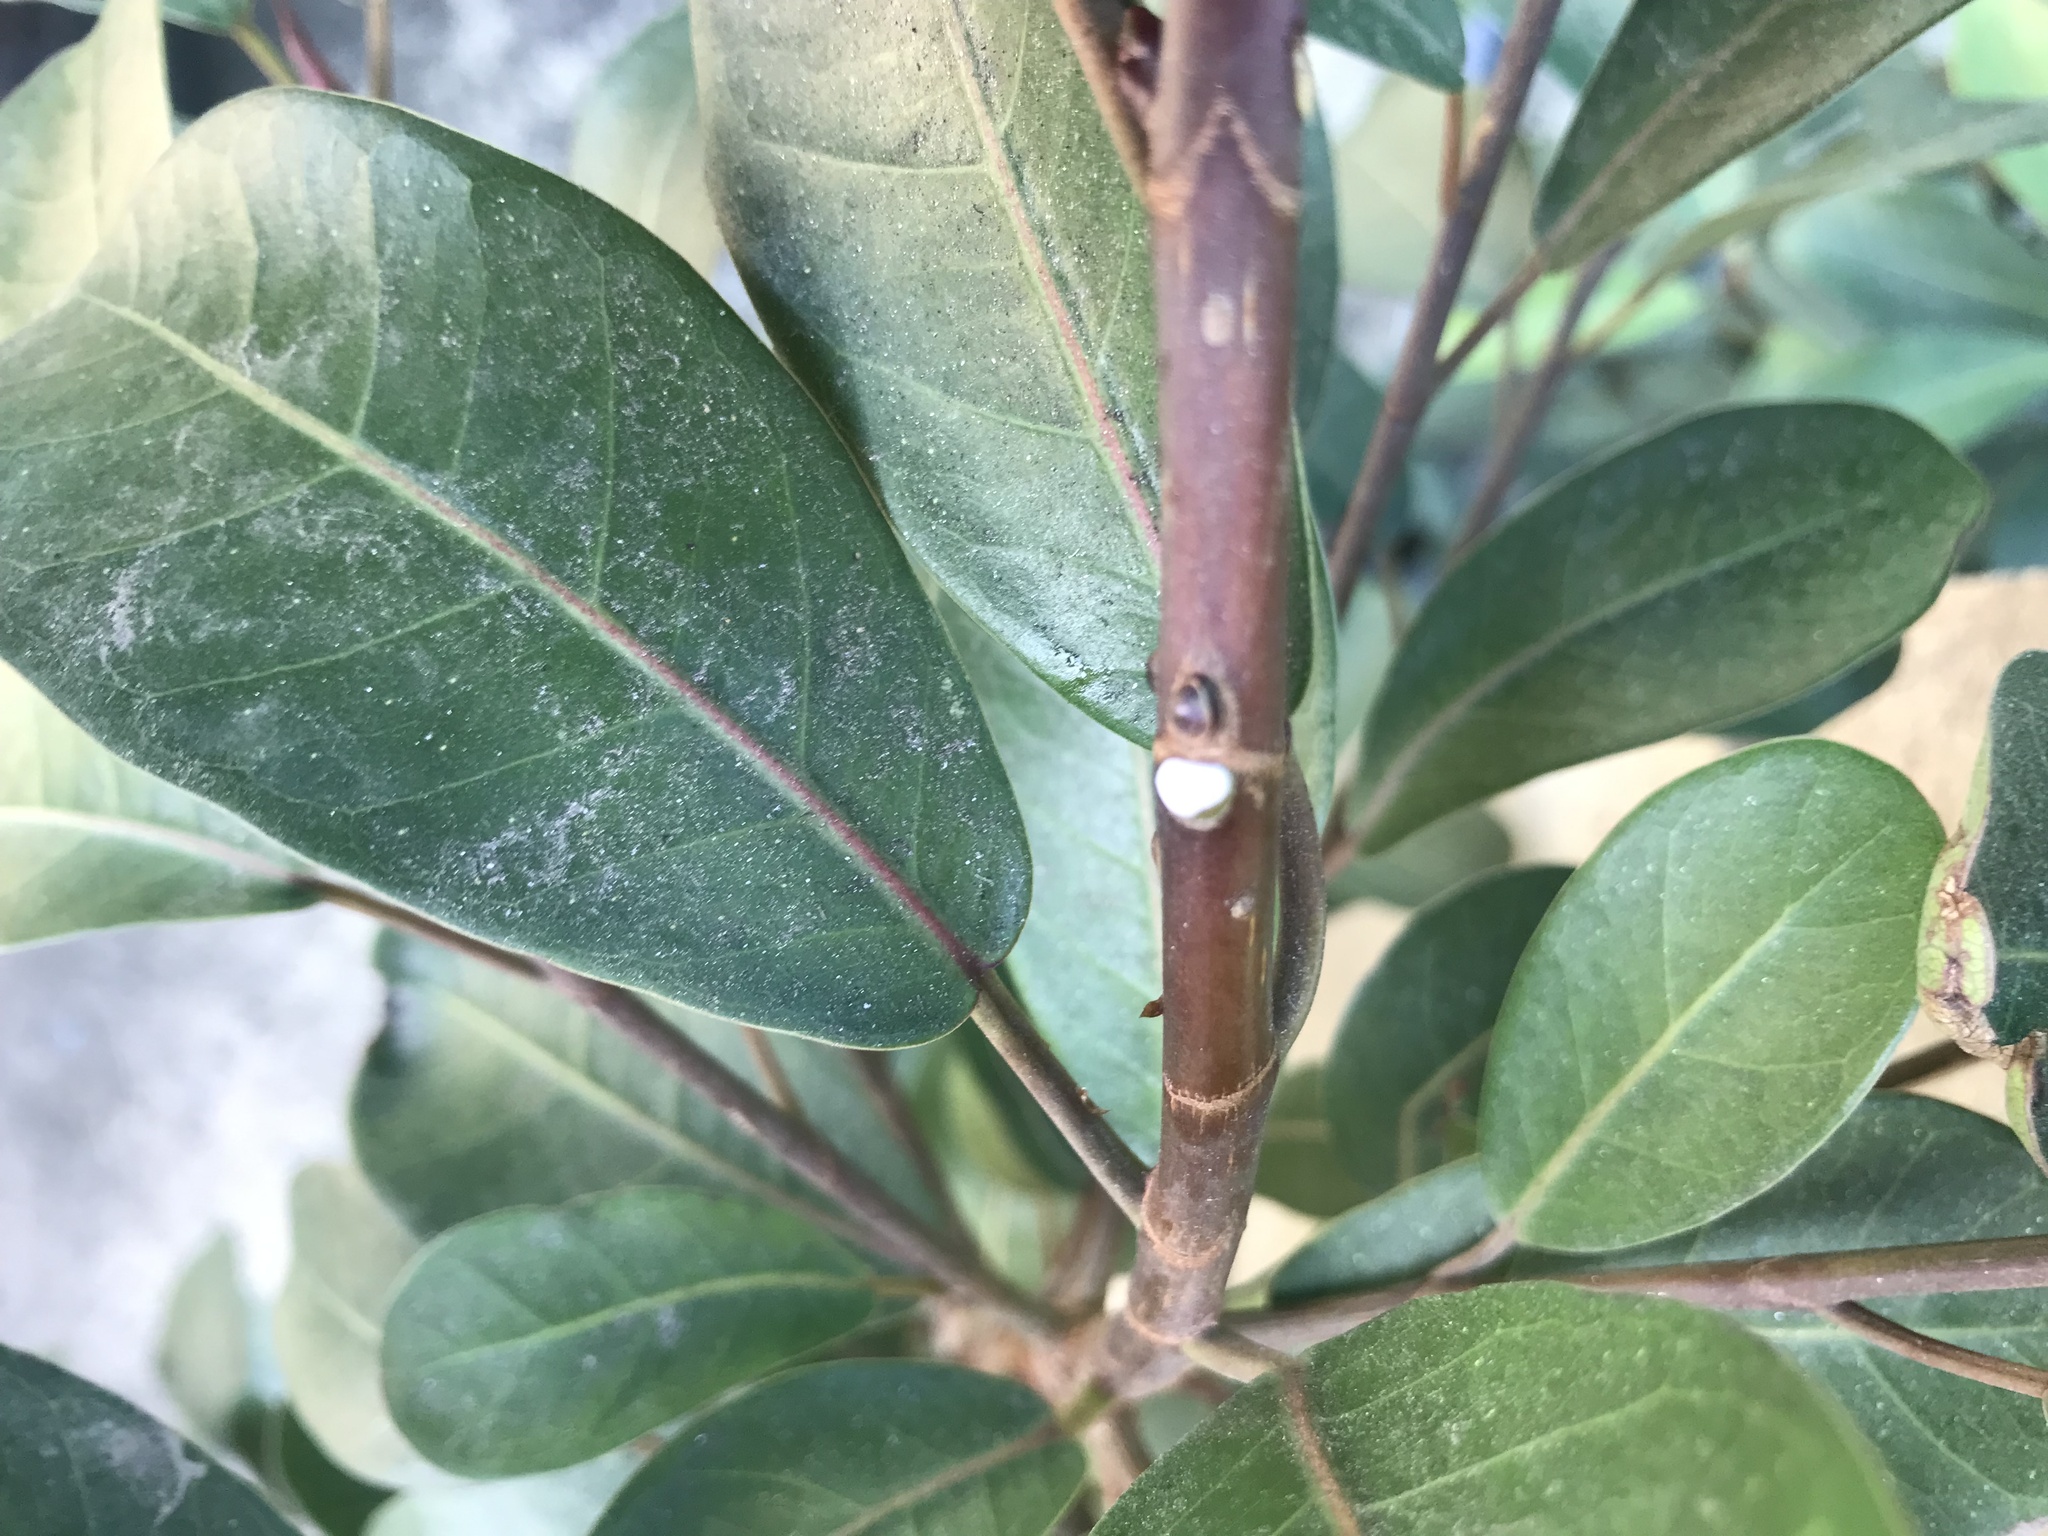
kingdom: Plantae
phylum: Tracheophyta
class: Magnoliopsida
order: Rosales
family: Moraceae
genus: Ficus
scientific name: Ficus thonningii
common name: Fig
